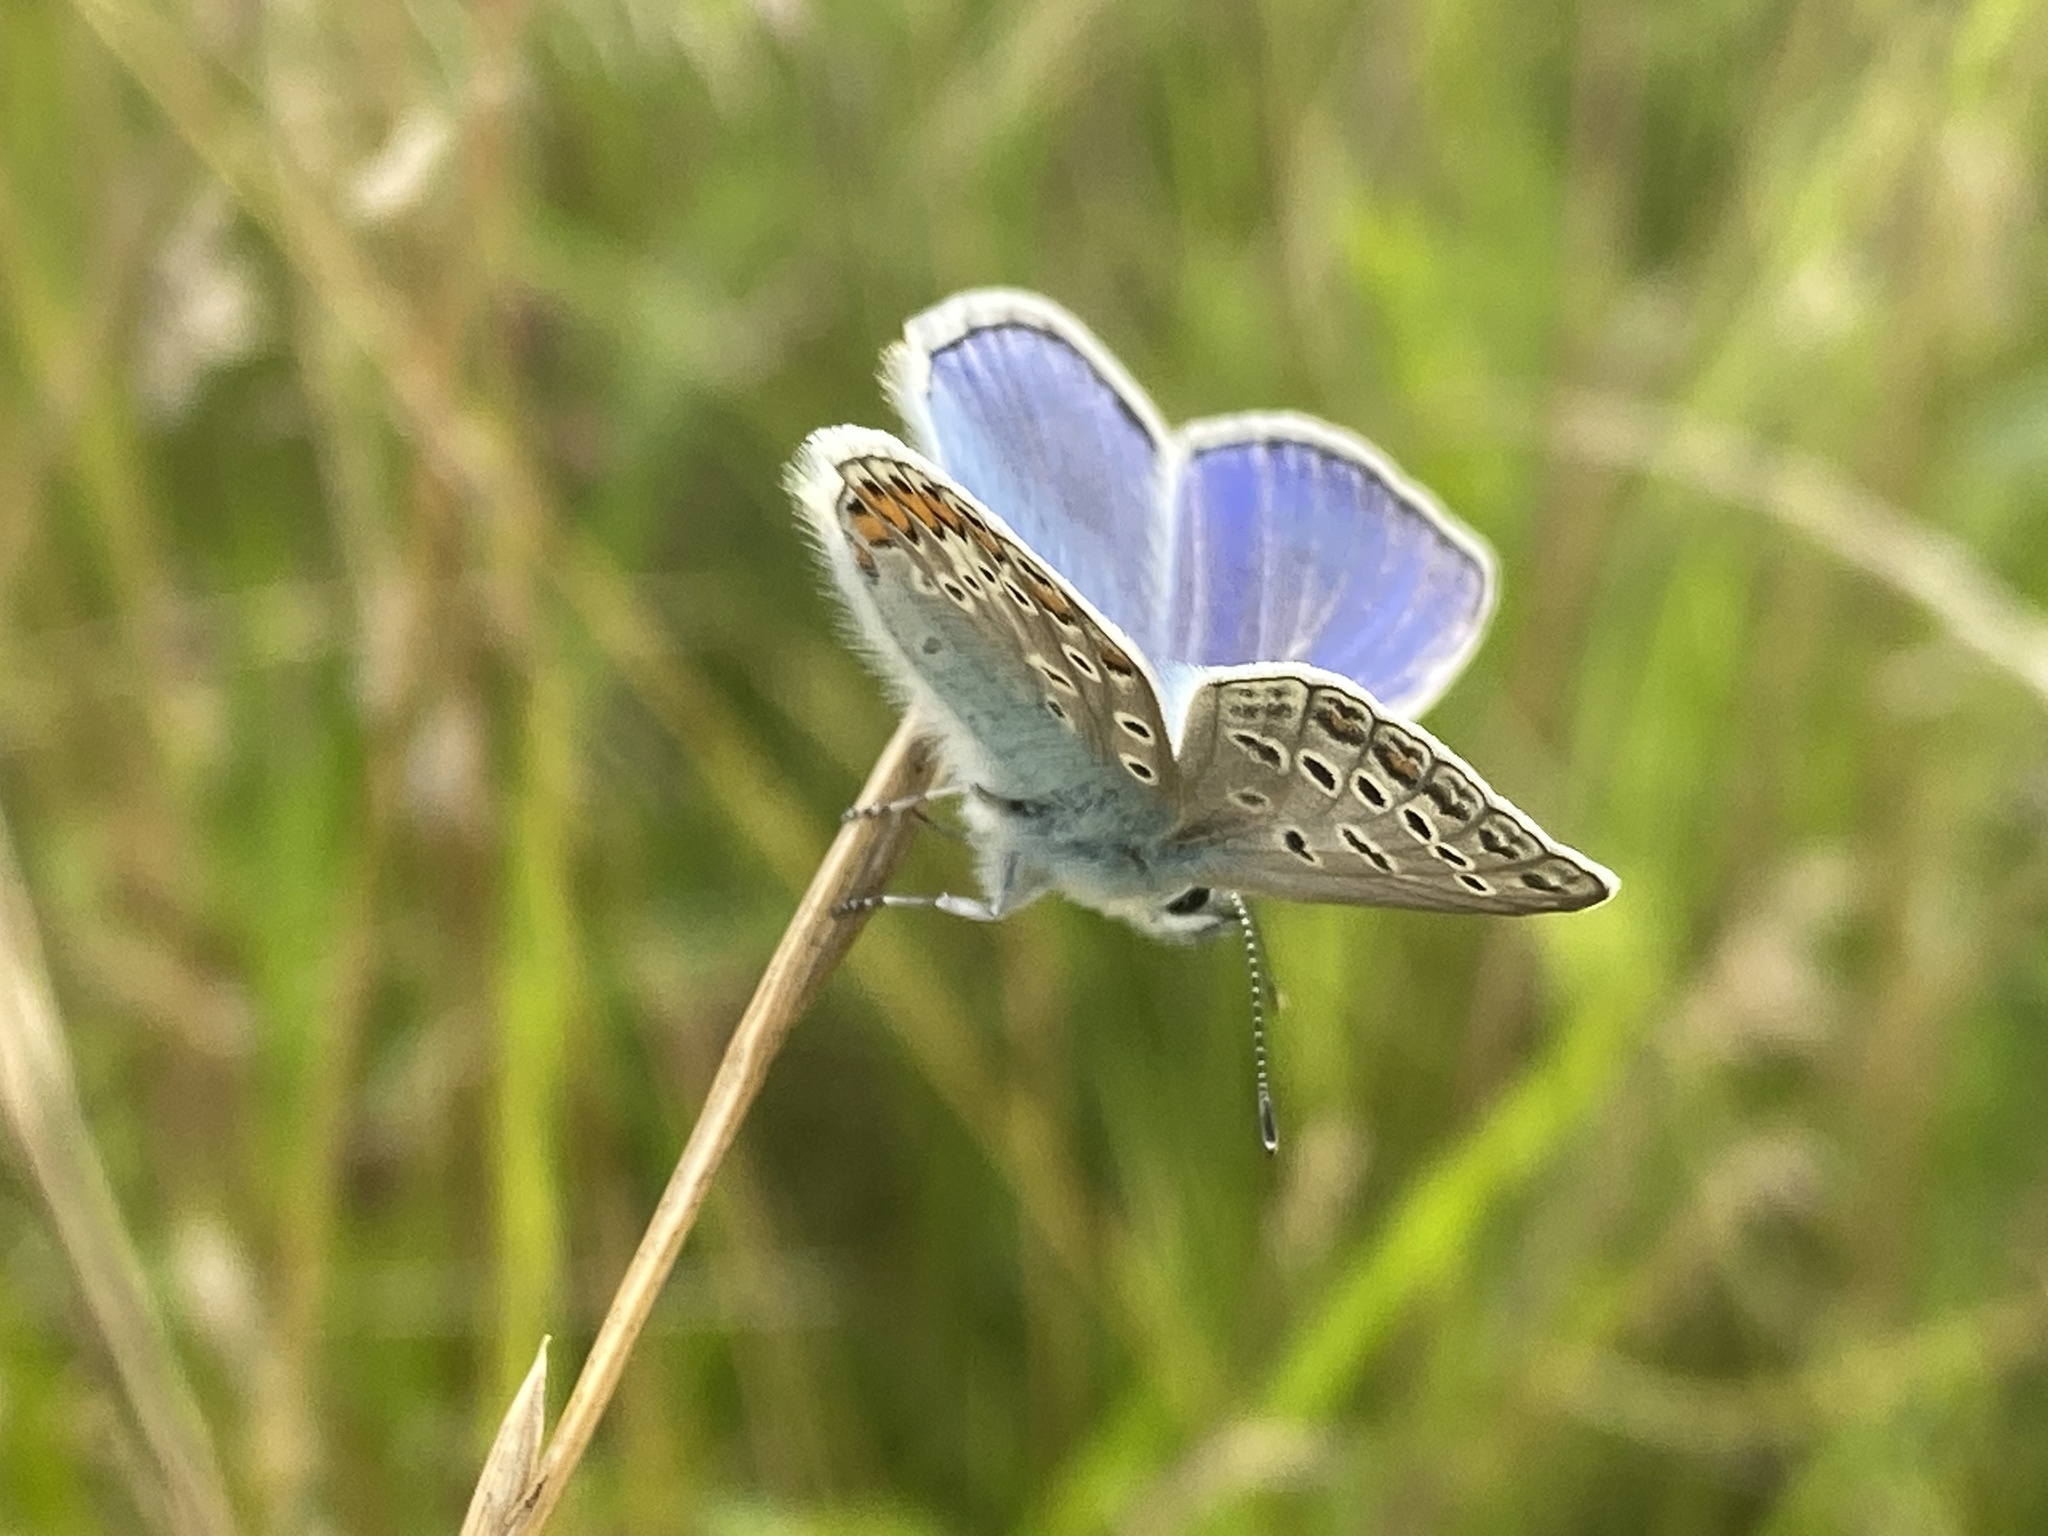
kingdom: Animalia
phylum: Arthropoda
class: Insecta
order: Lepidoptera
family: Lycaenidae
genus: Polyommatus
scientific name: Polyommatus icarus
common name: Common blue
